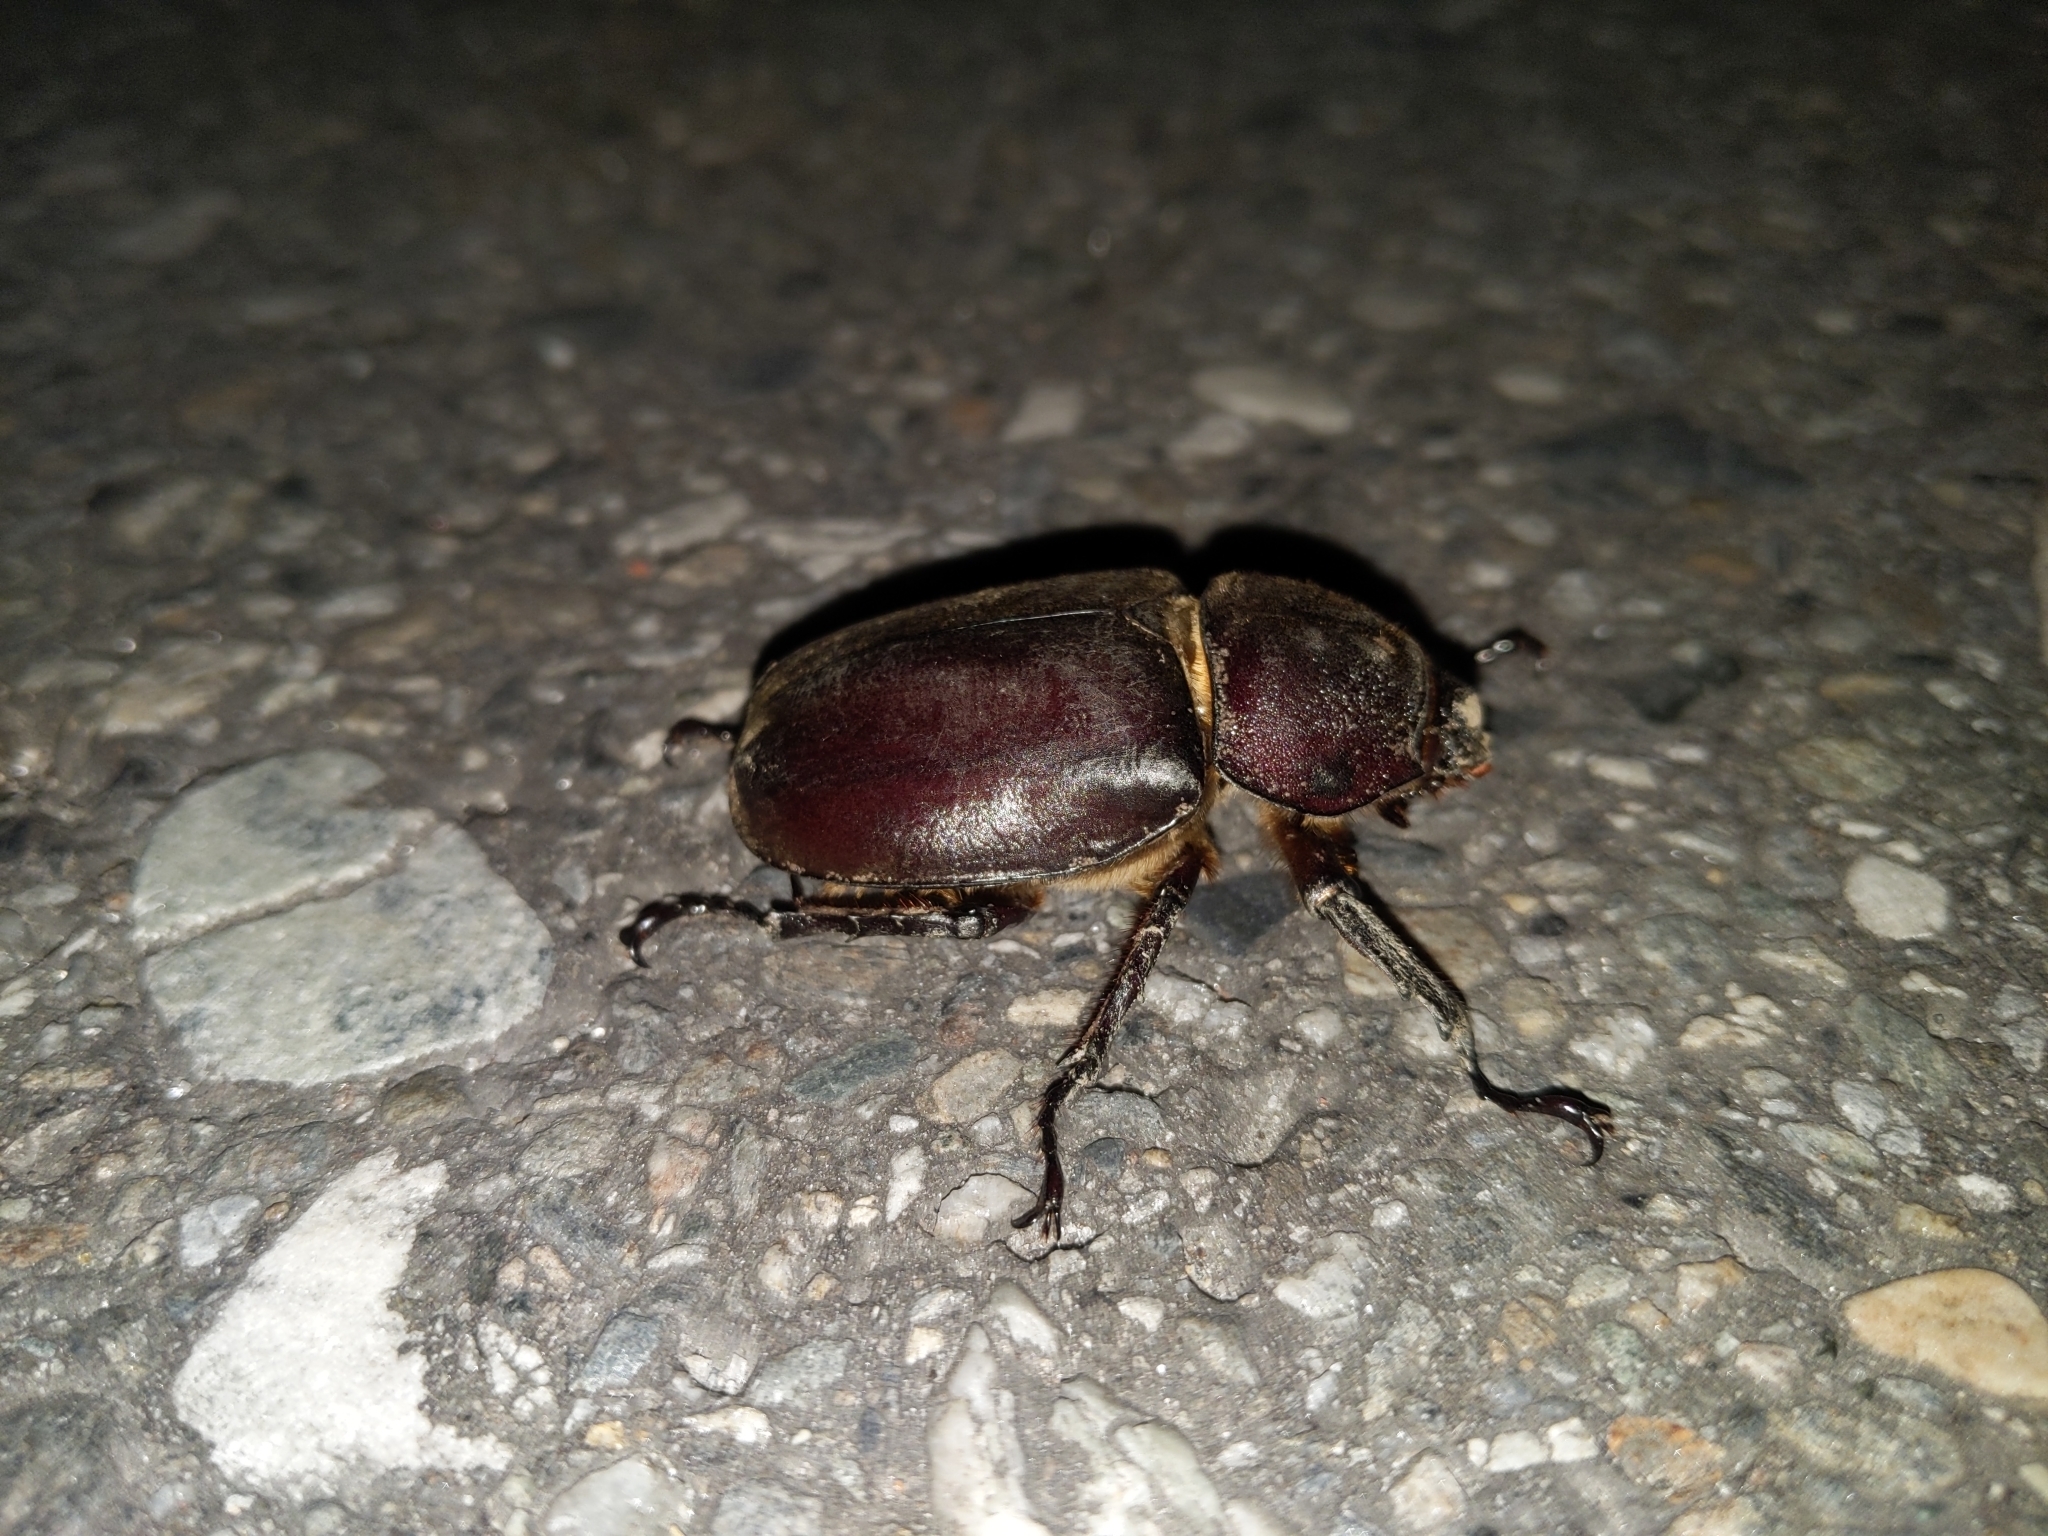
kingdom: Animalia
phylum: Arthropoda
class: Insecta
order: Coleoptera
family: Scarabaeidae
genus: Trypoxylus
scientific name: Trypoxylus dichotomus
